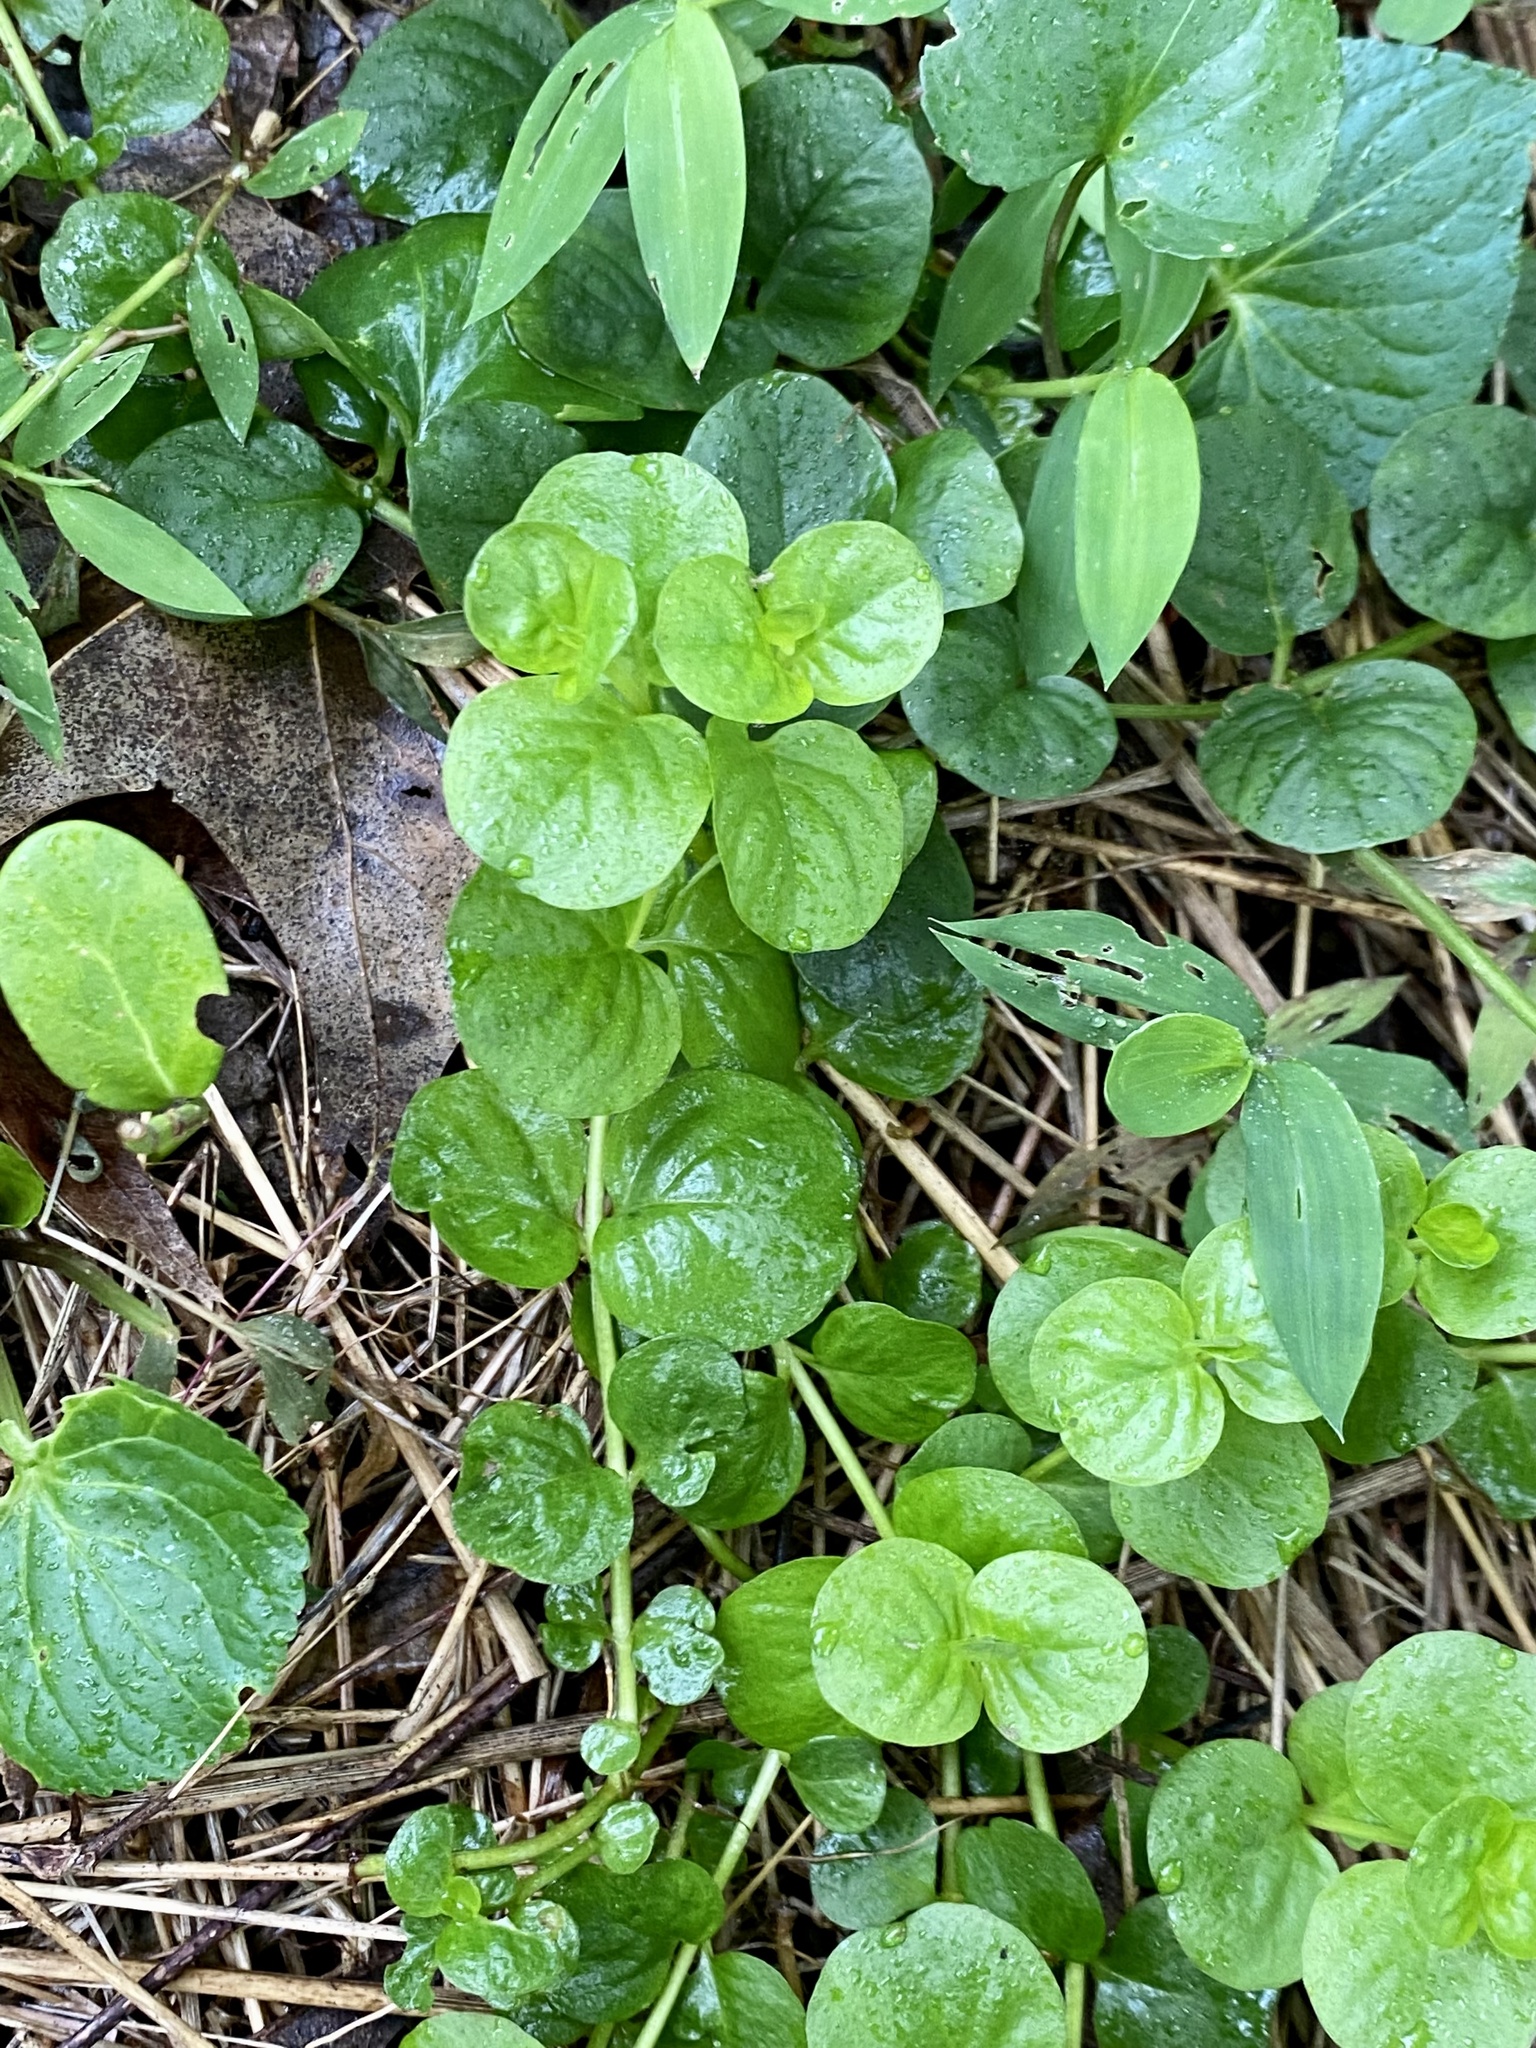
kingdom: Plantae
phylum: Tracheophyta
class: Magnoliopsida
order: Ericales
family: Primulaceae
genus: Lysimachia
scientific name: Lysimachia nummularia
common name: Moneywort
